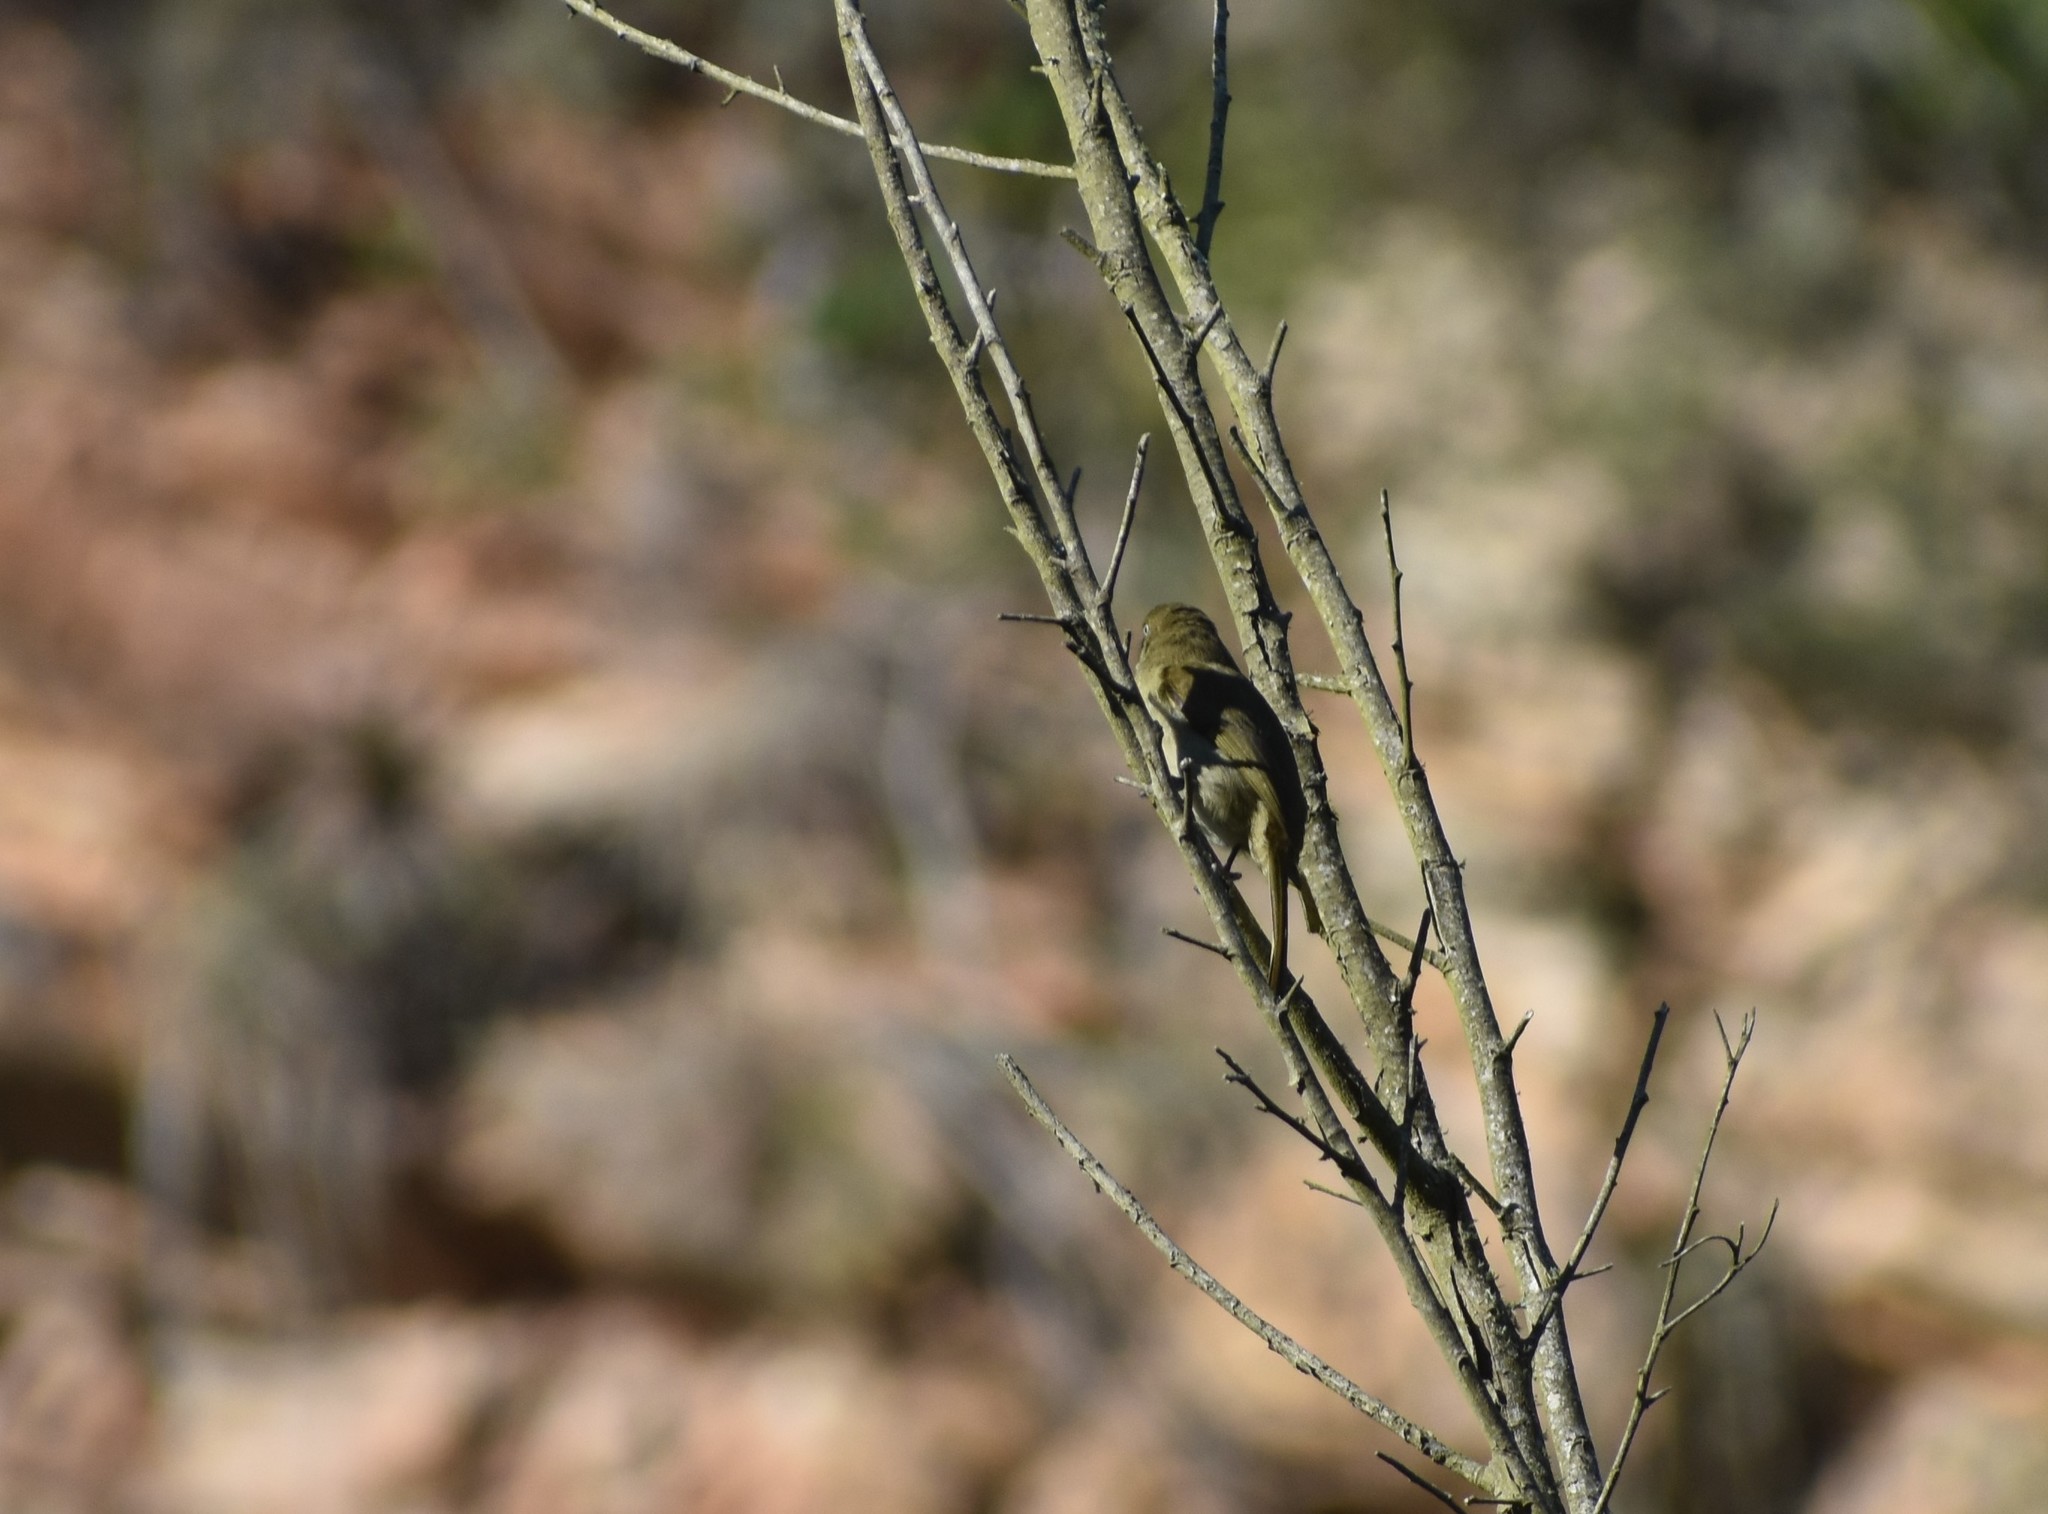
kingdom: Animalia
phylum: Chordata
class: Aves
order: Passeriformes
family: Pycnonotidae
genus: Andropadus
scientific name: Andropadus importunus
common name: Sombre greenbul
